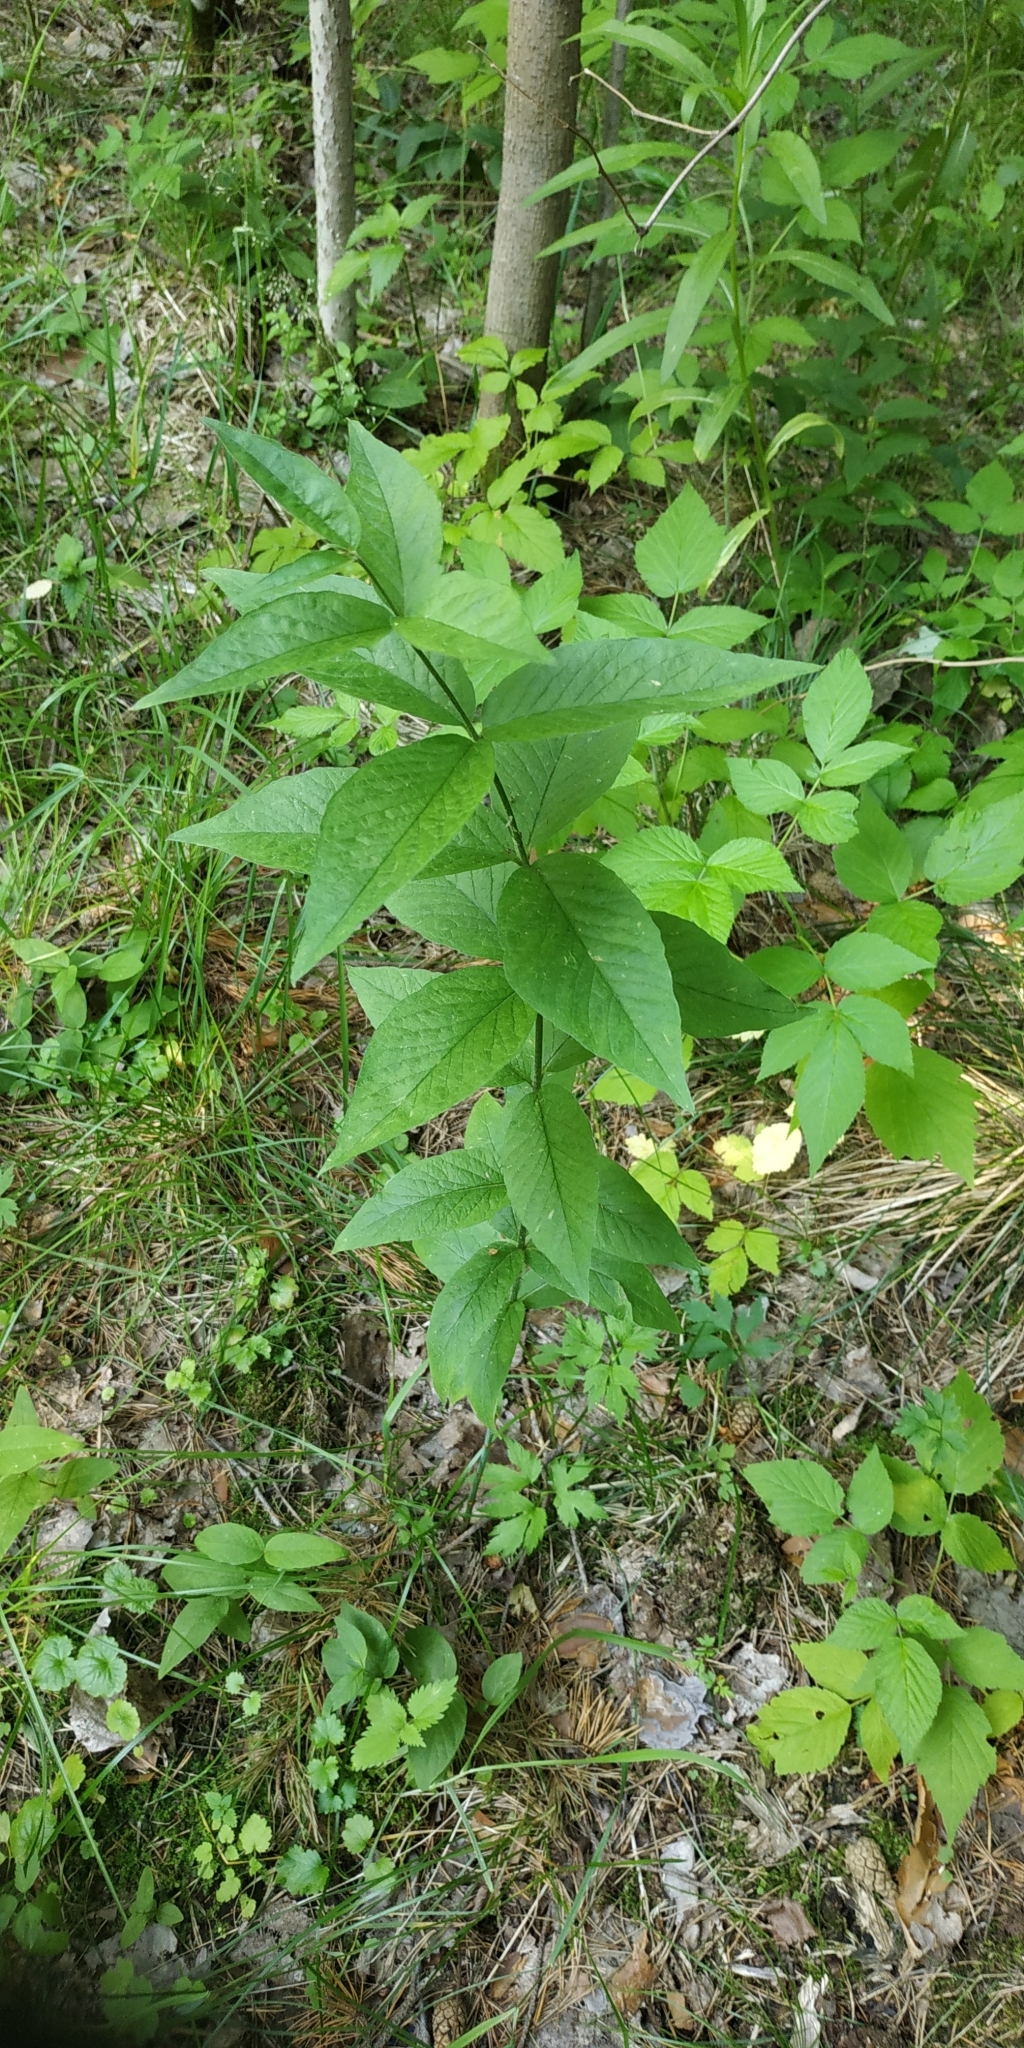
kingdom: Plantae
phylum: Tracheophyta
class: Magnoliopsida
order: Ericales
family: Primulaceae
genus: Lysimachia
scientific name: Lysimachia vulgaris
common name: Yellow loosestrife
